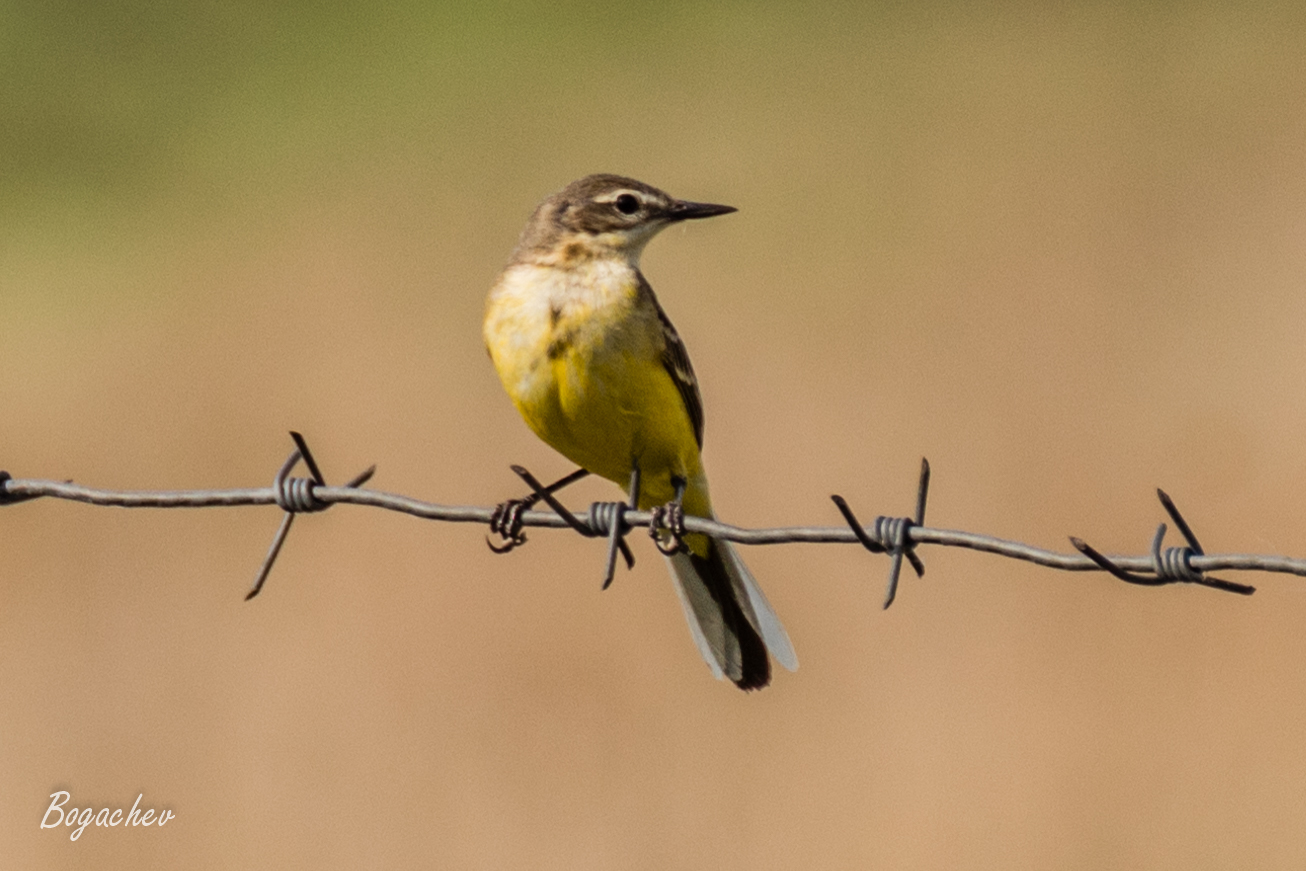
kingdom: Animalia
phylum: Chordata
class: Aves
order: Passeriformes
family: Motacillidae
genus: Motacilla
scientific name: Motacilla flava
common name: Western yellow wagtail
